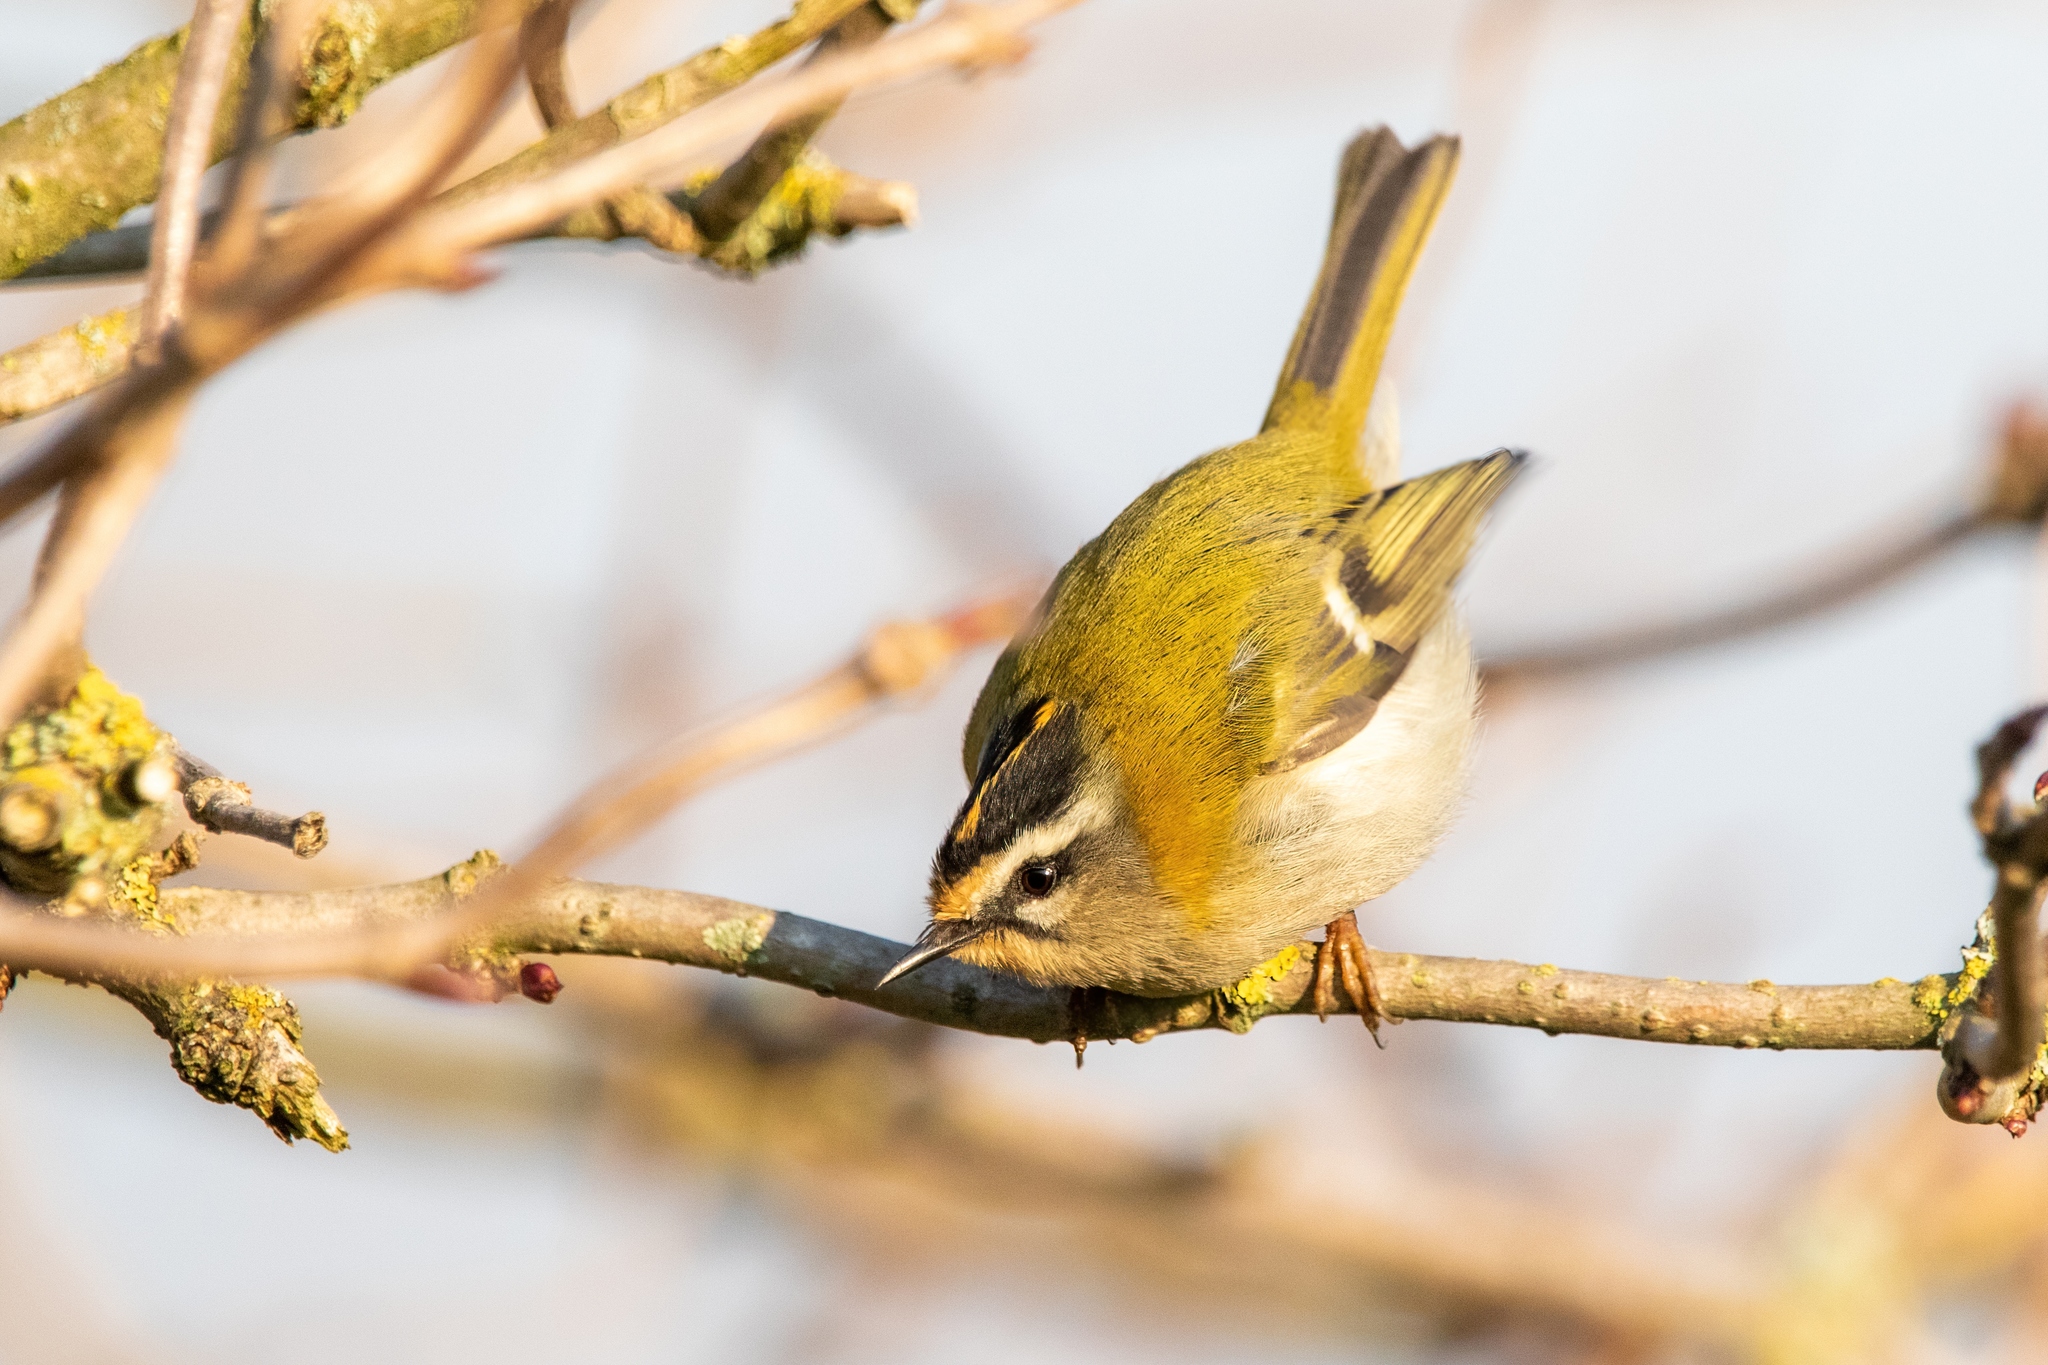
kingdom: Animalia
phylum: Chordata
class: Aves
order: Passeriformes
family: Regulidae
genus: Regulus
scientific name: Regulus ignicapilla
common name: Firecrest
